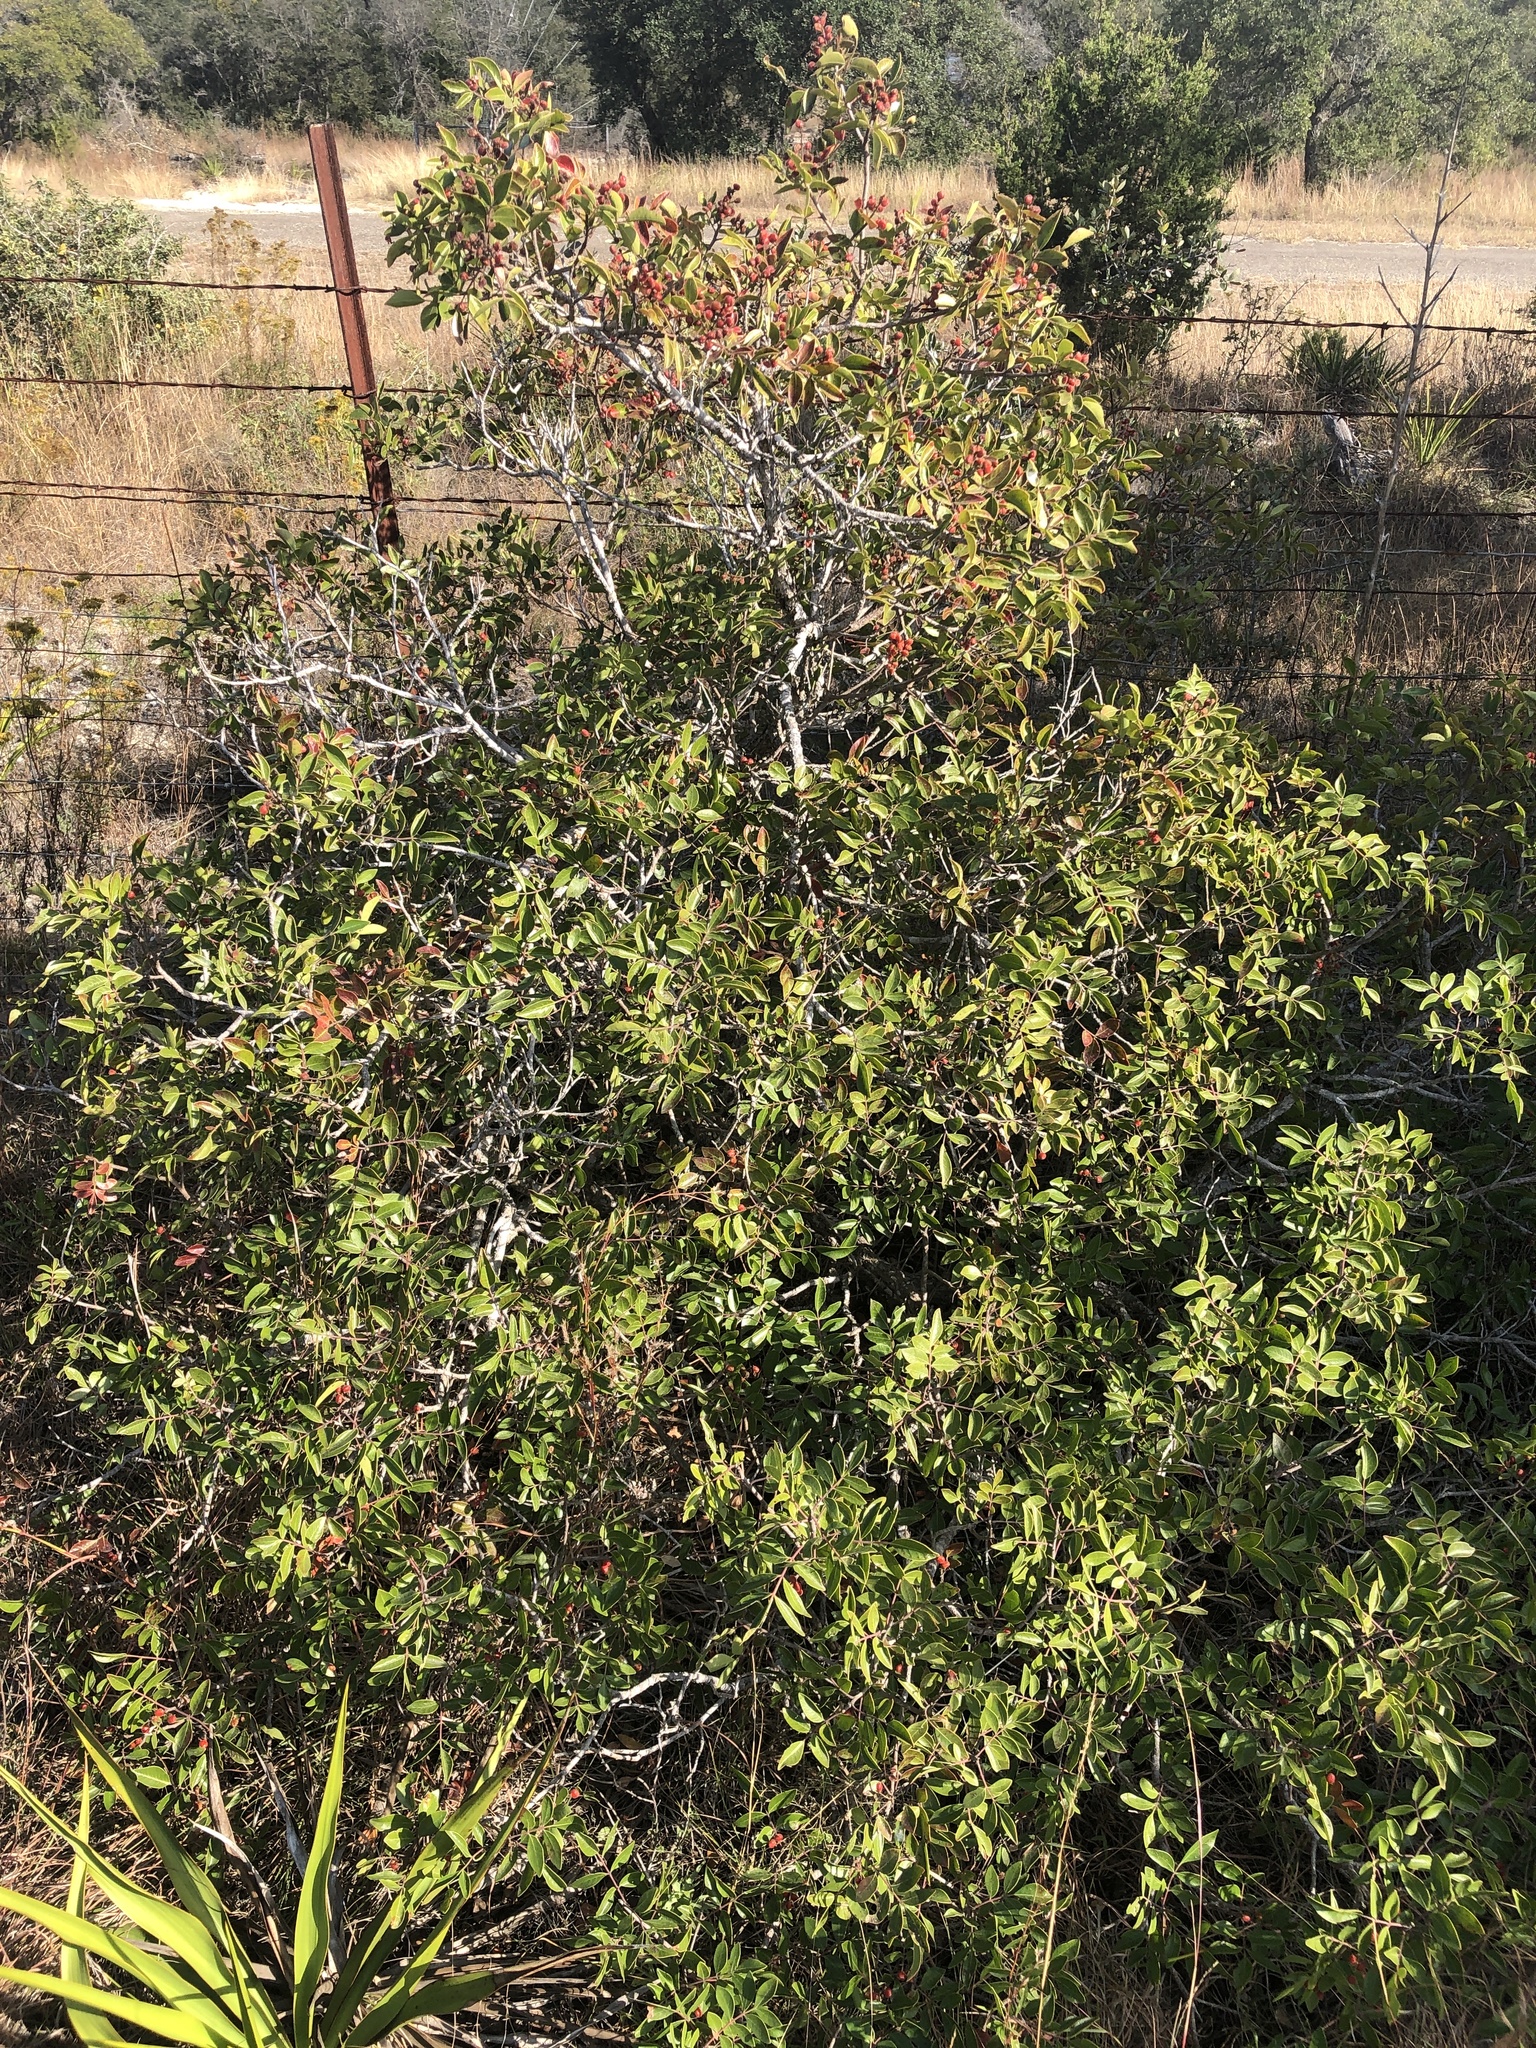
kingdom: Plantae
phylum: Tracheophyta
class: Magnoliopsida
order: Sapindales
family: Anacardiaceae
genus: Rhus
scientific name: Rhus virens
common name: Evergreen sumac
